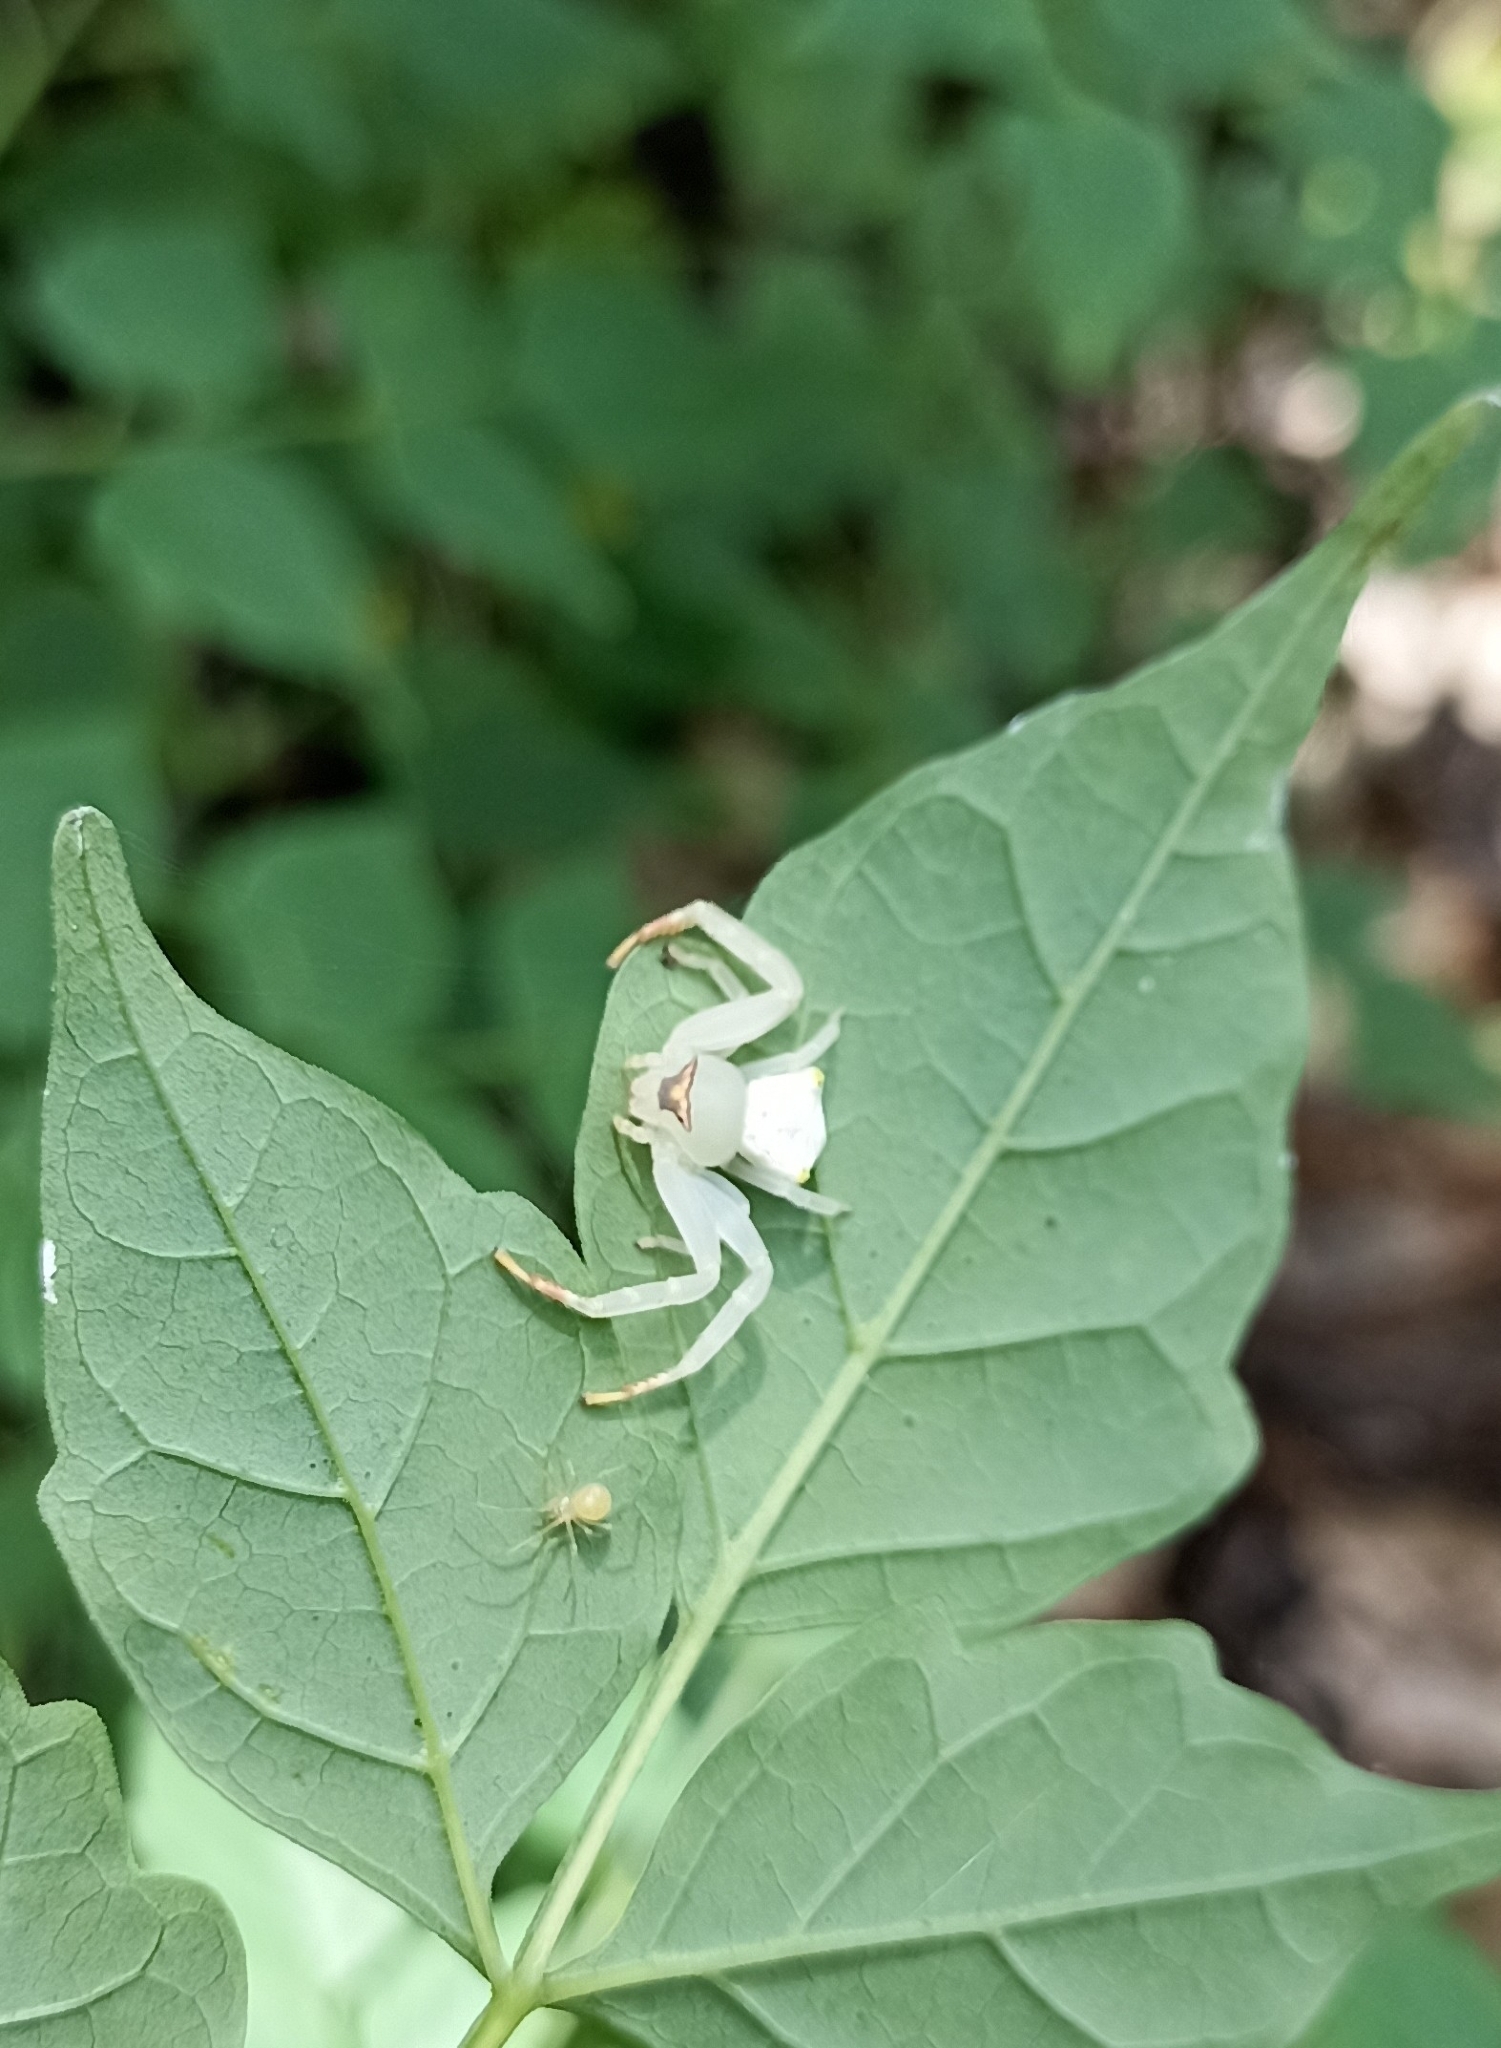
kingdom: Animalia
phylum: Arthropoda
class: Arachnida
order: Araneae
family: Thomisidae
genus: Thomisus
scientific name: Thomisus labefactus
